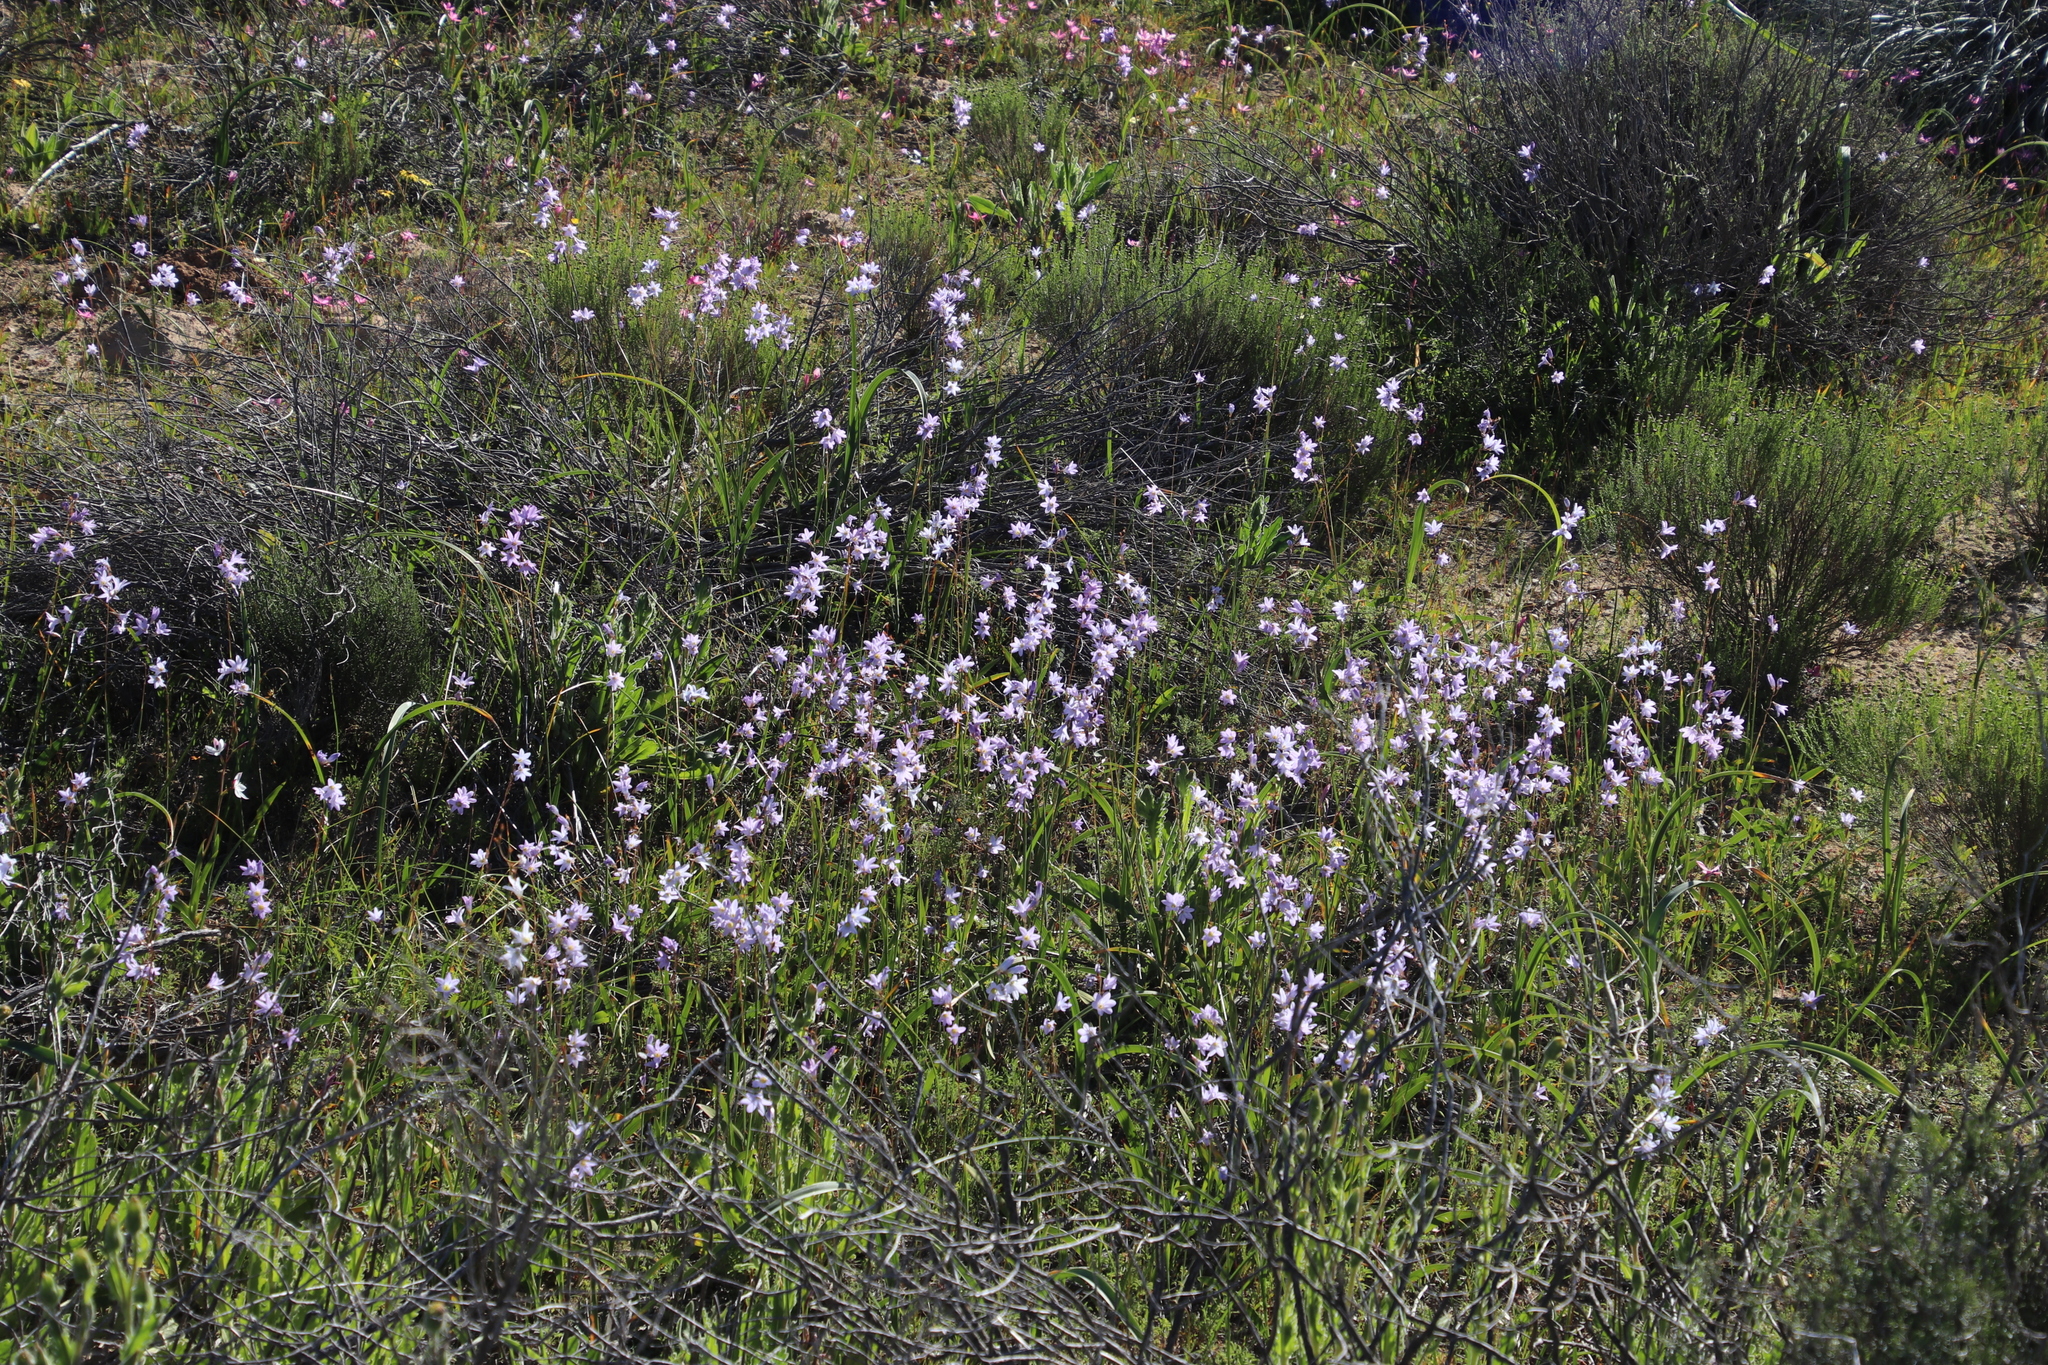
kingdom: Plantae
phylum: Tracheophyta
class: Liliopsida
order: Asparagales
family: Iridaceae
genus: Ixia
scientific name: Ixia rapunculoides
